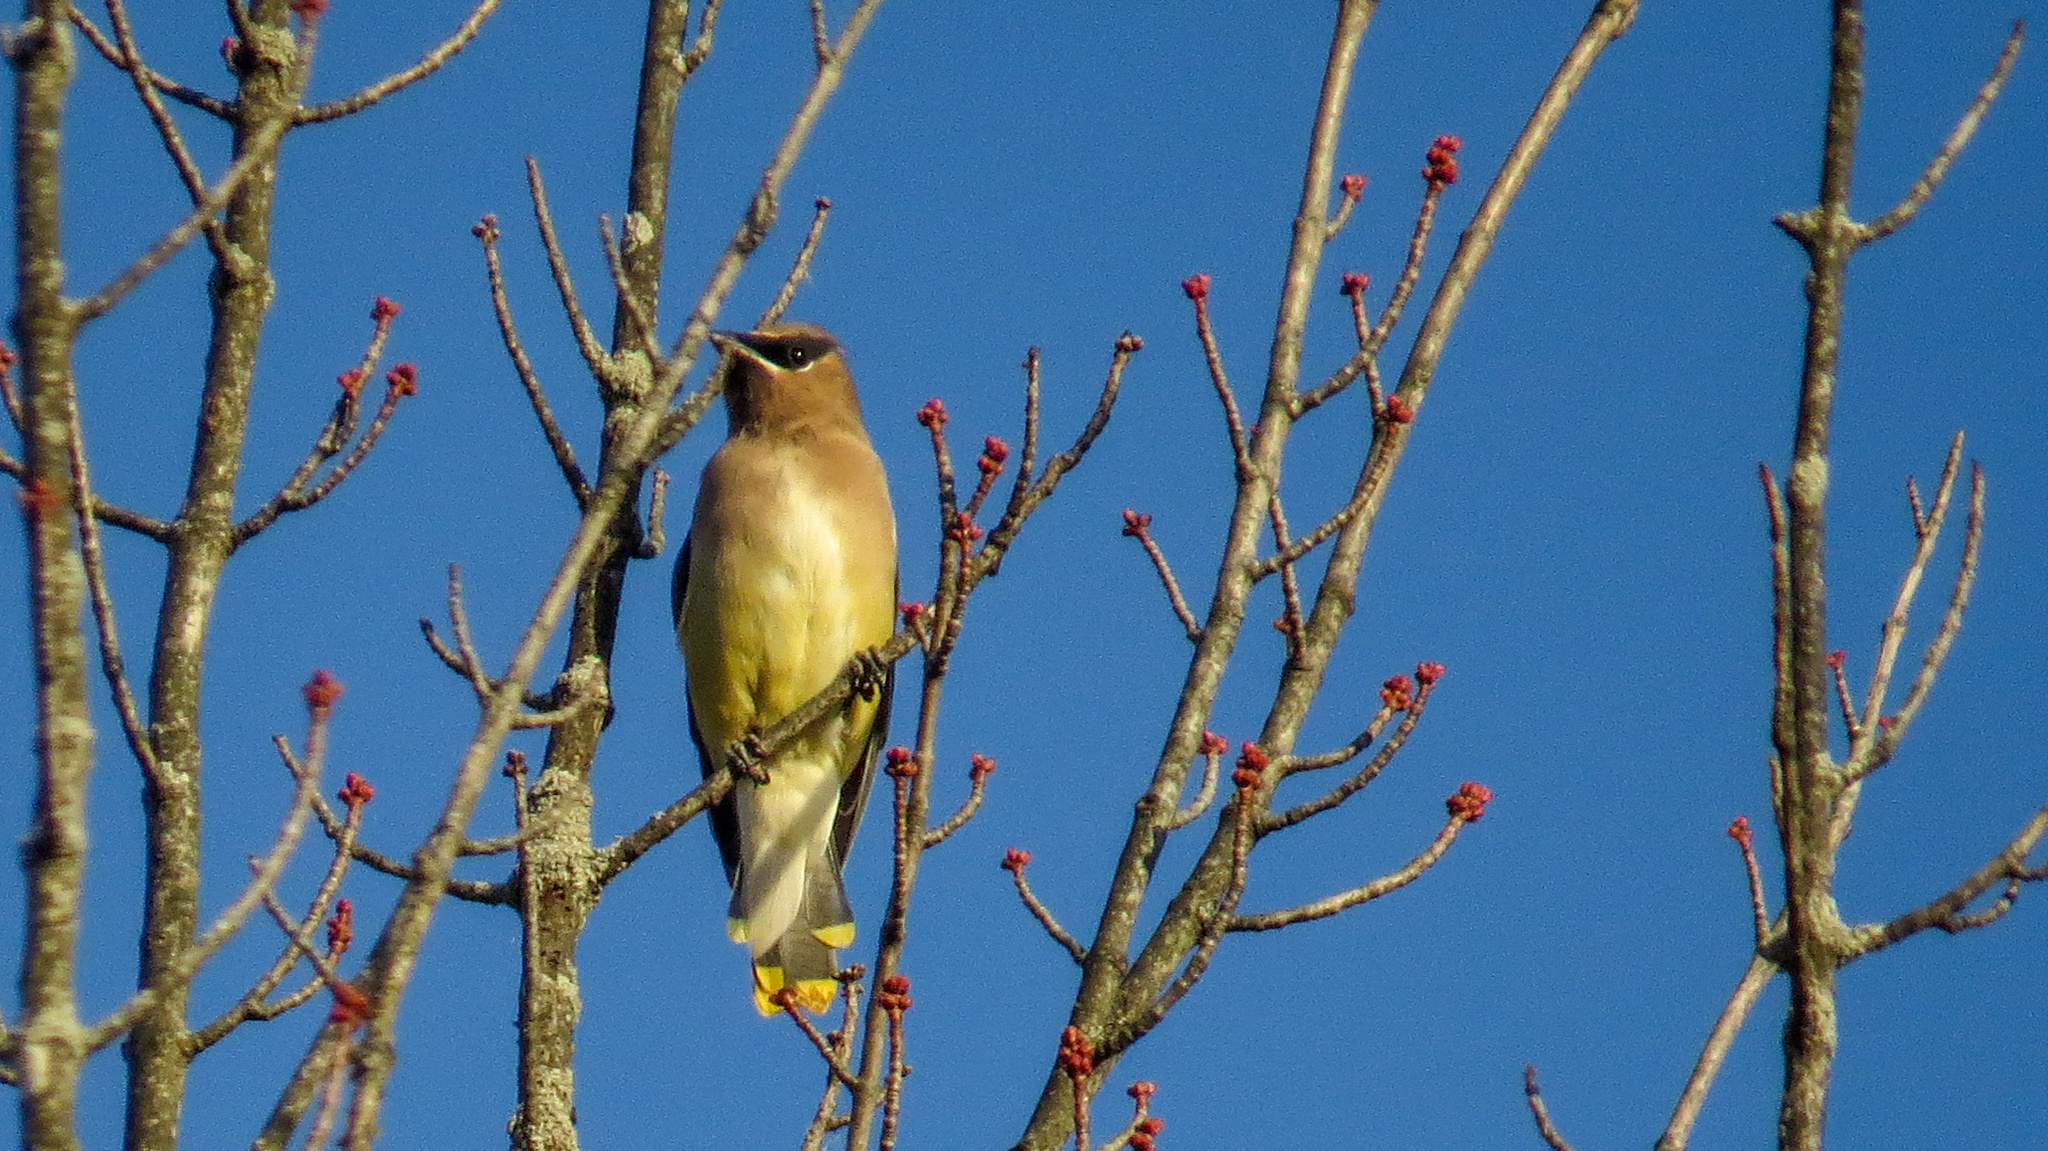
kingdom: Animalia
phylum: Chordata
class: Aves
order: Passeriformes
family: Bombycillidae
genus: Bombycilla
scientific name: Bombycilla cedrorum
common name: Cedar waxwing
